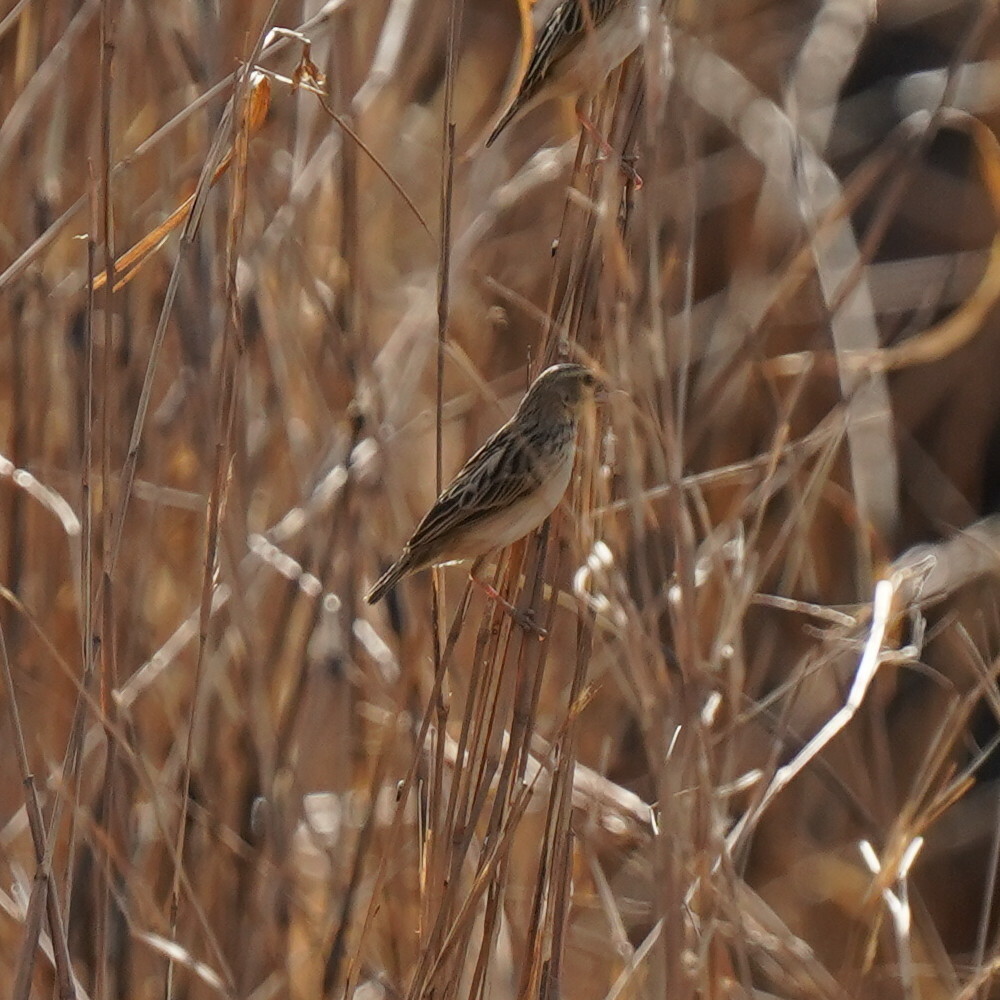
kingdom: Animalia
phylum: Chordata
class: Aves
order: Passeriformes
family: Ploceidae
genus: Euplectes
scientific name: Euplectes franciscanus
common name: Northern red bishop
